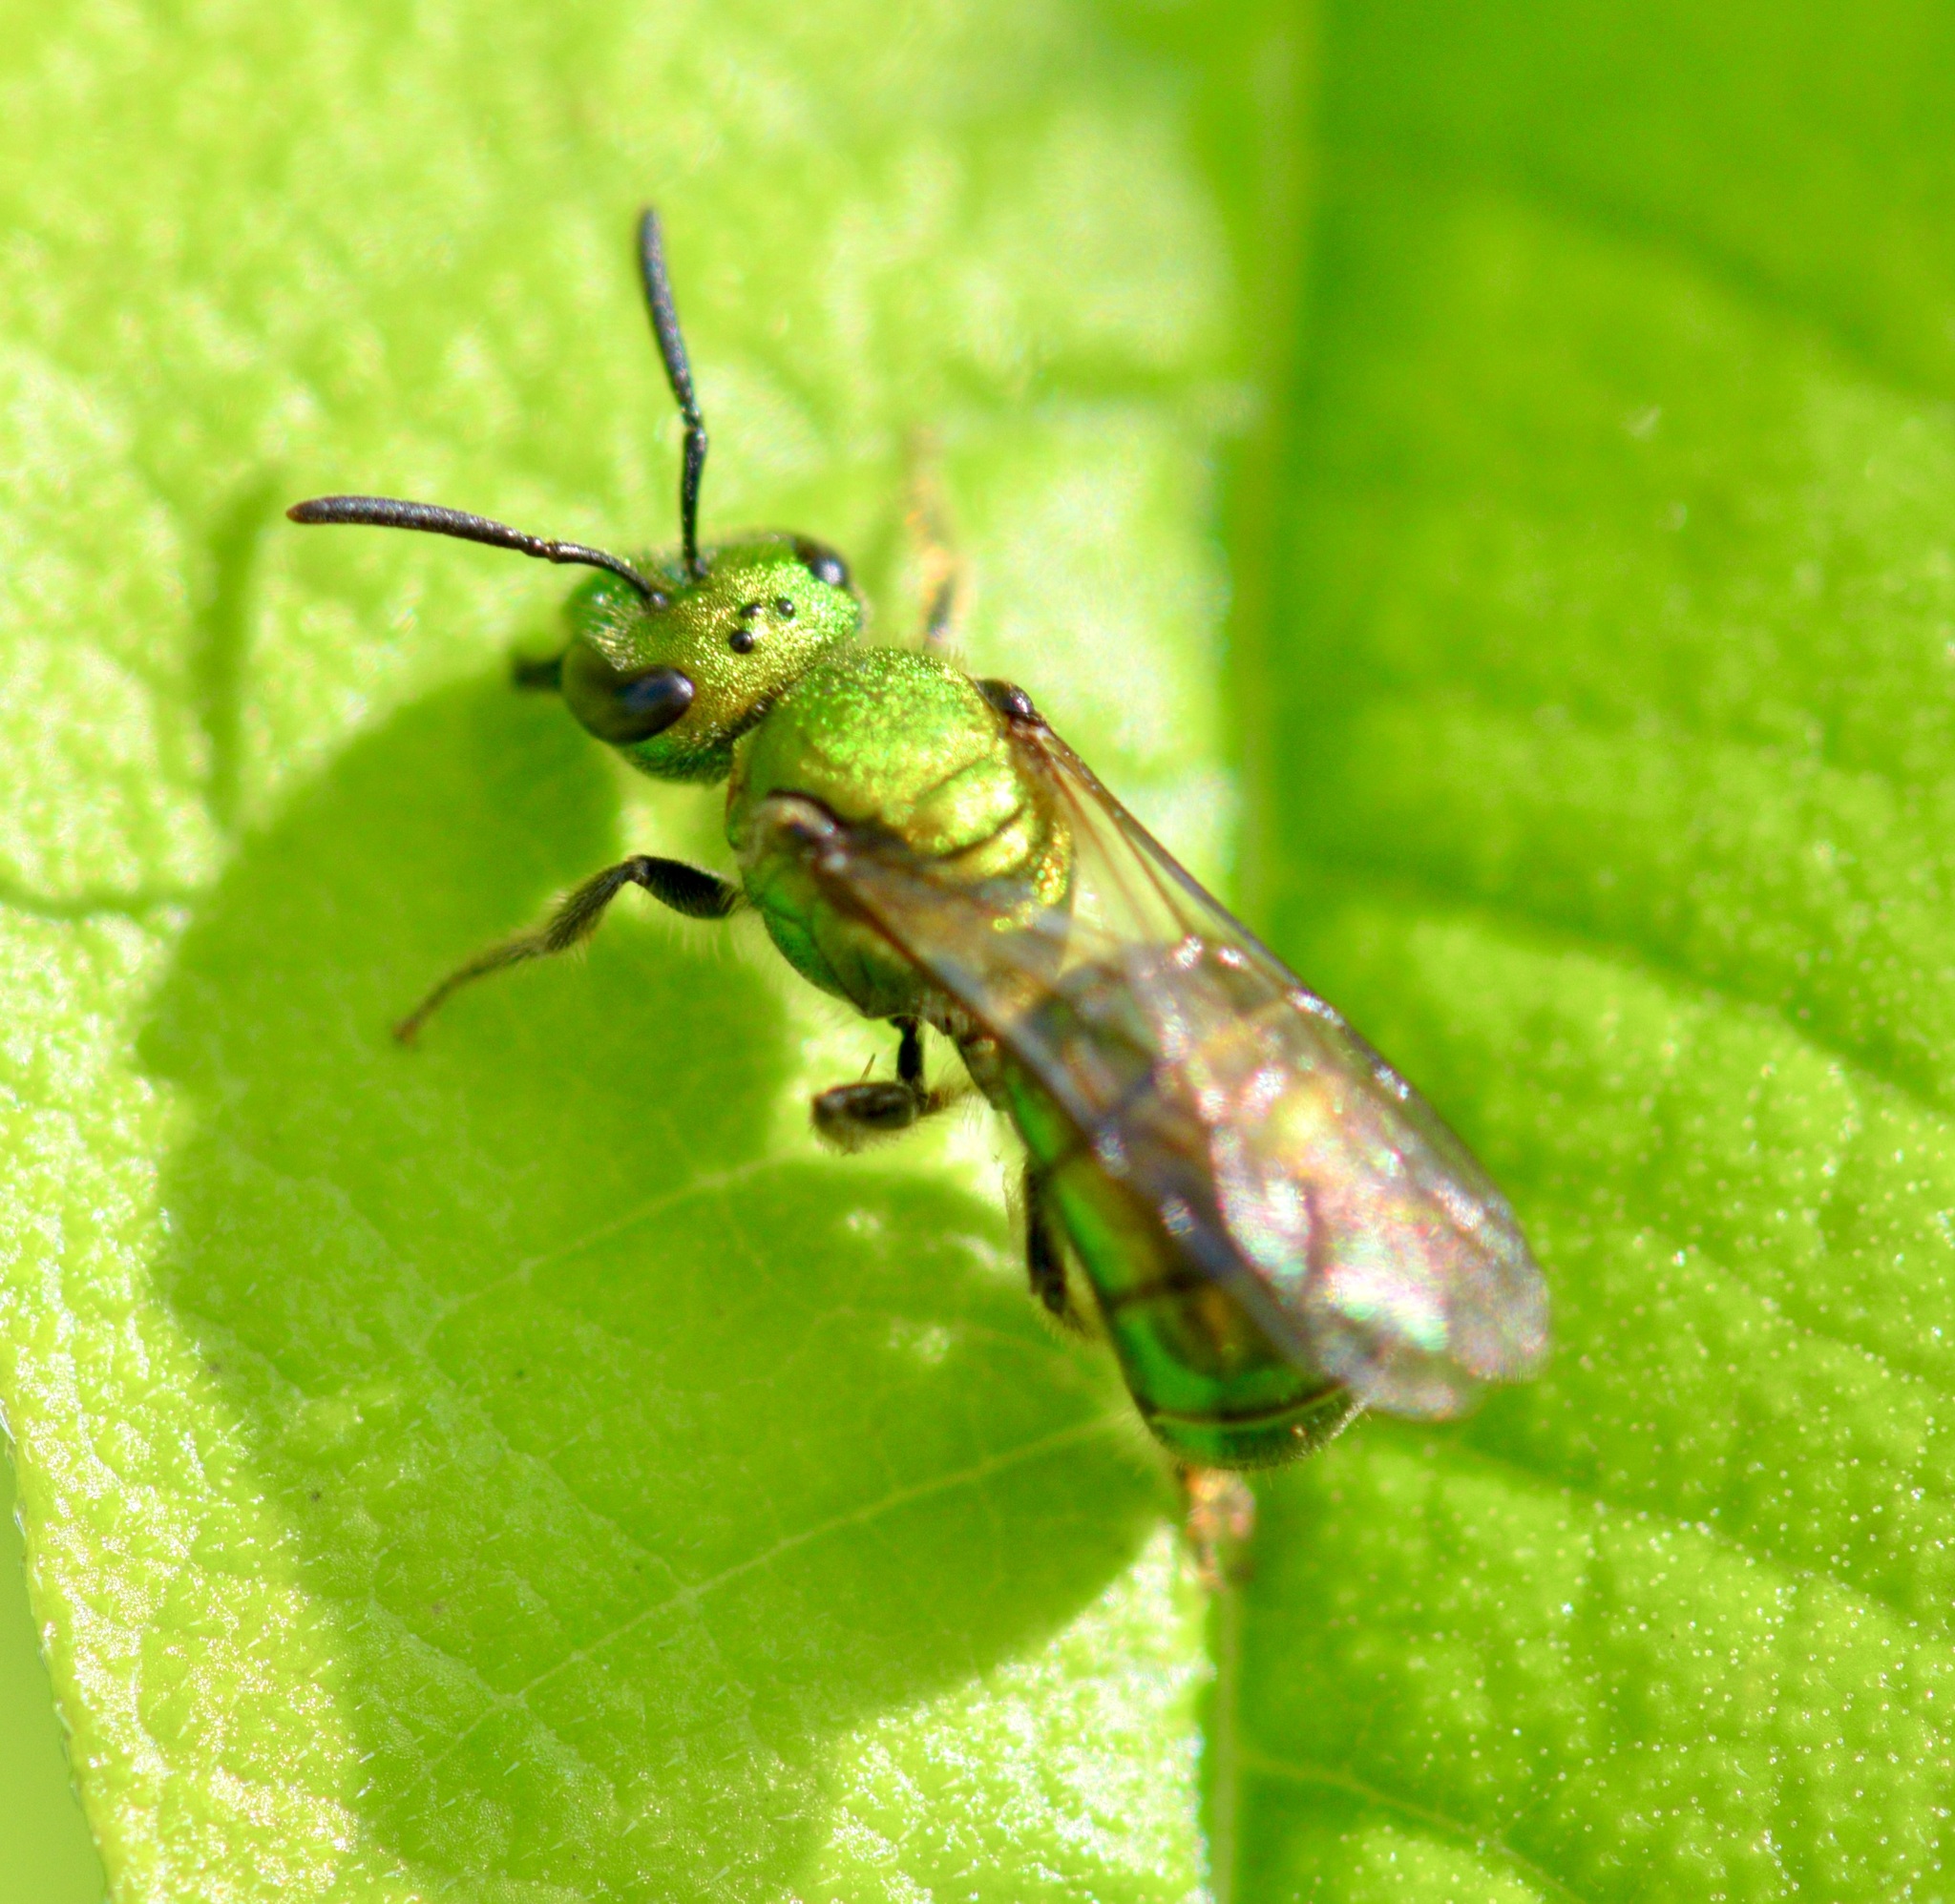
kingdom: Animalia
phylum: Arthropoda
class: Insecta
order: Hymenoptera
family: Halictidae
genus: Augochlora
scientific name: Augochlora pura
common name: Pure green sweat bee
